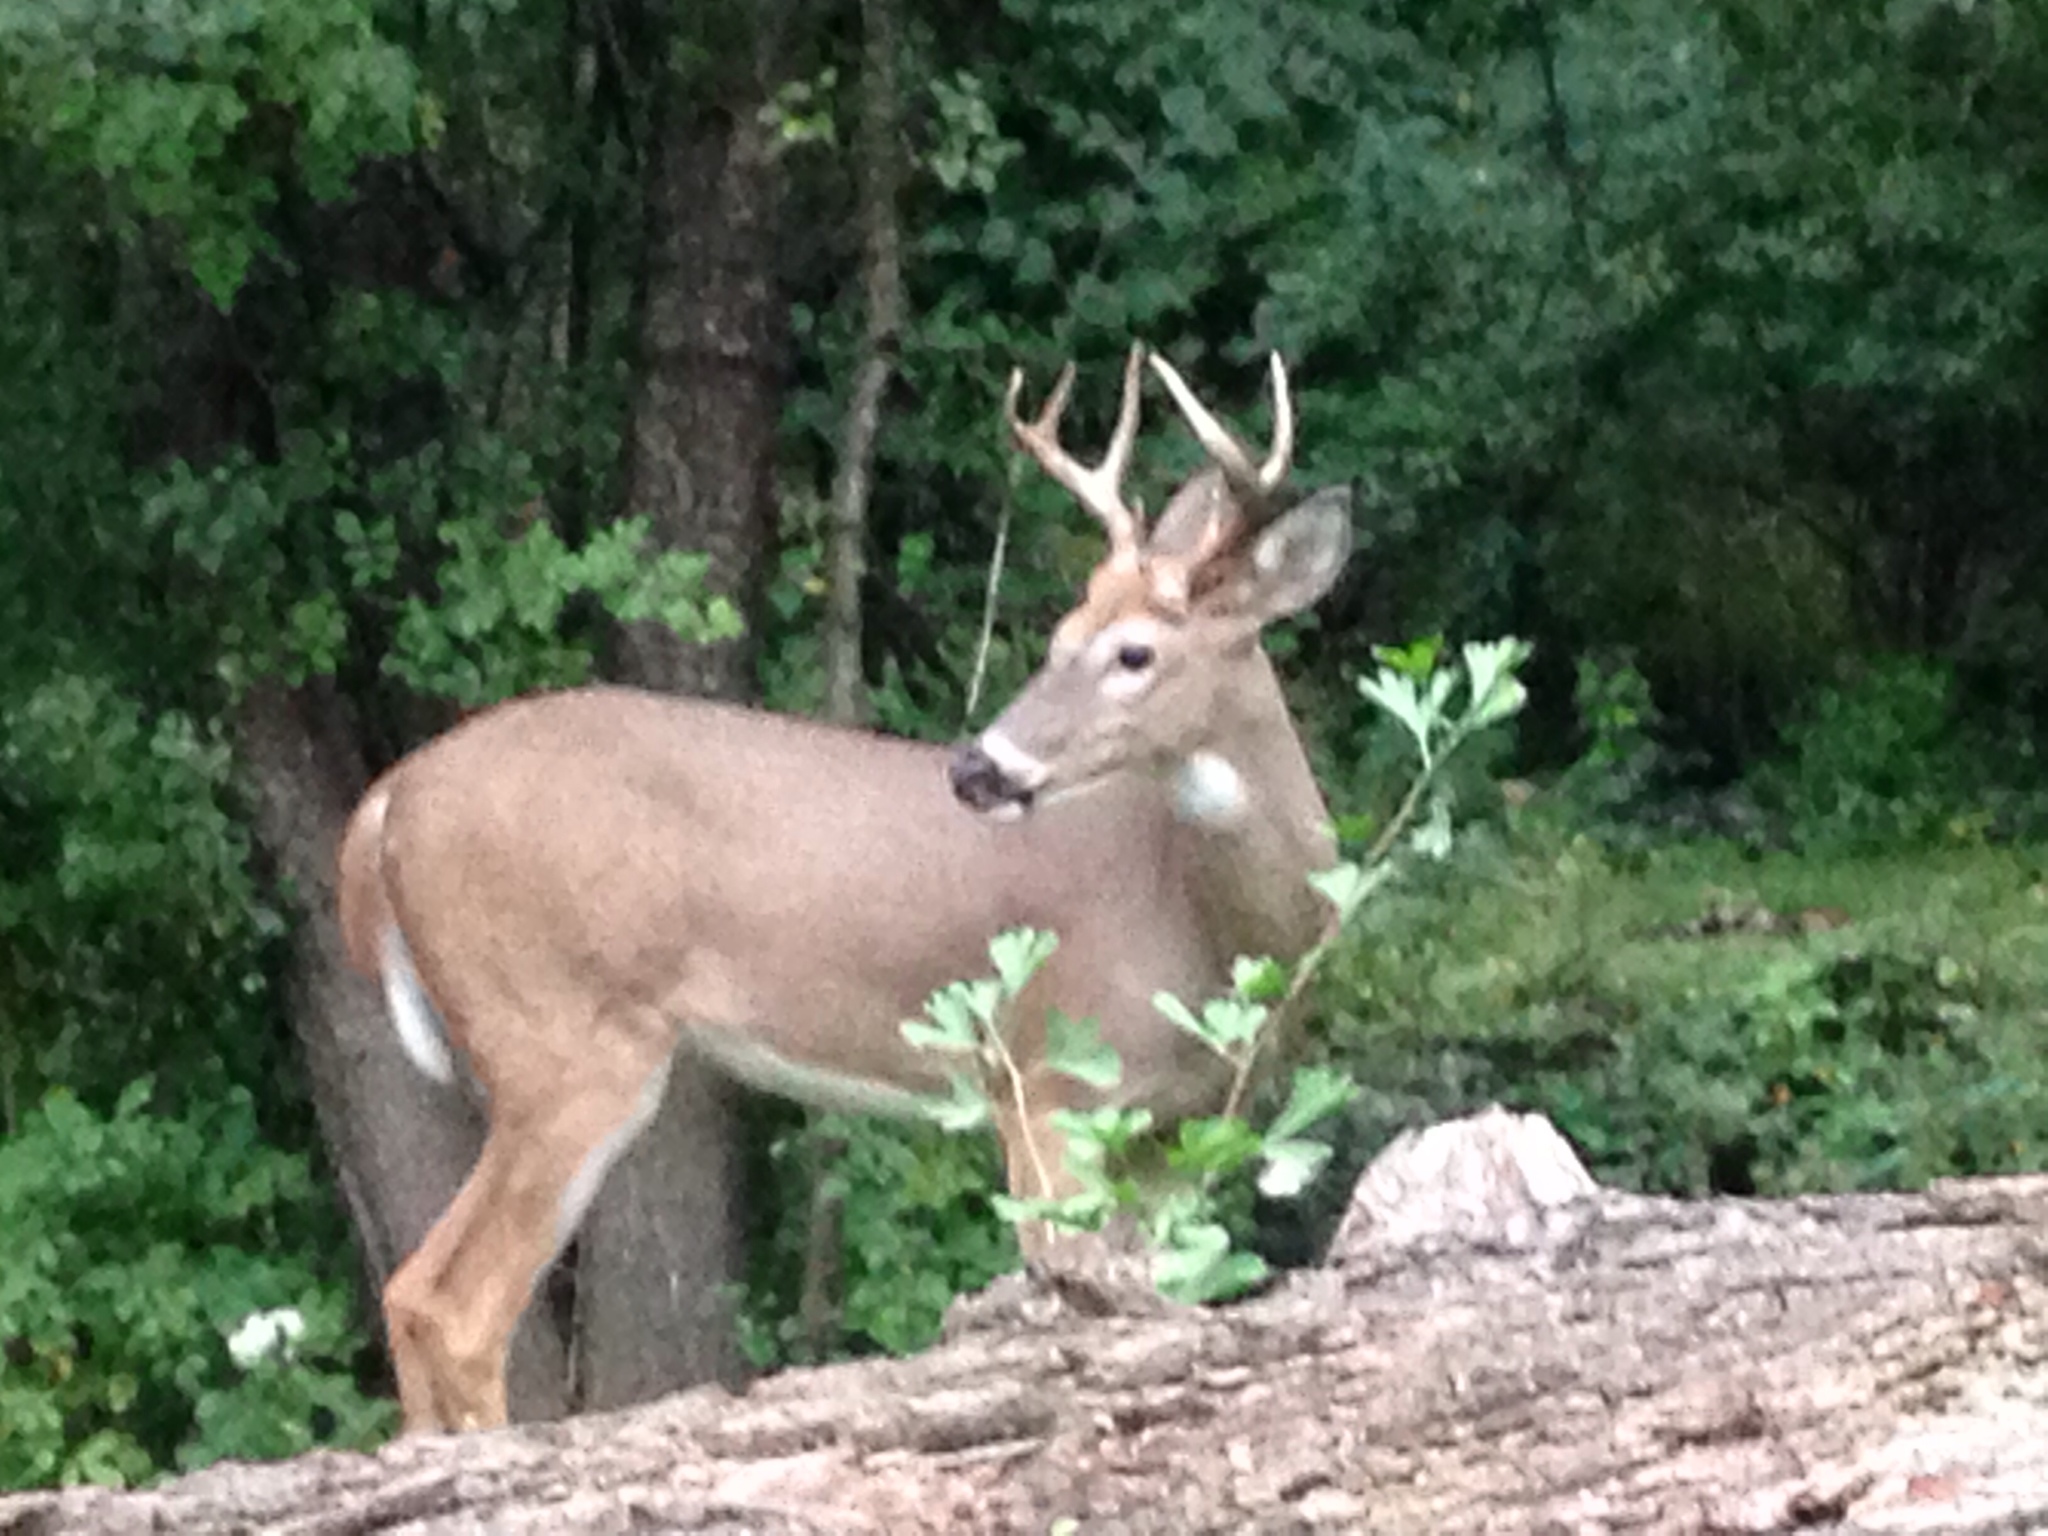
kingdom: Animalia
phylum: Chordata
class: Mammalia
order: Artiodactyla
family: Cervidae
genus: Odocoileus
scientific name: Odocoileus virginianus
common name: White-tailed deer
